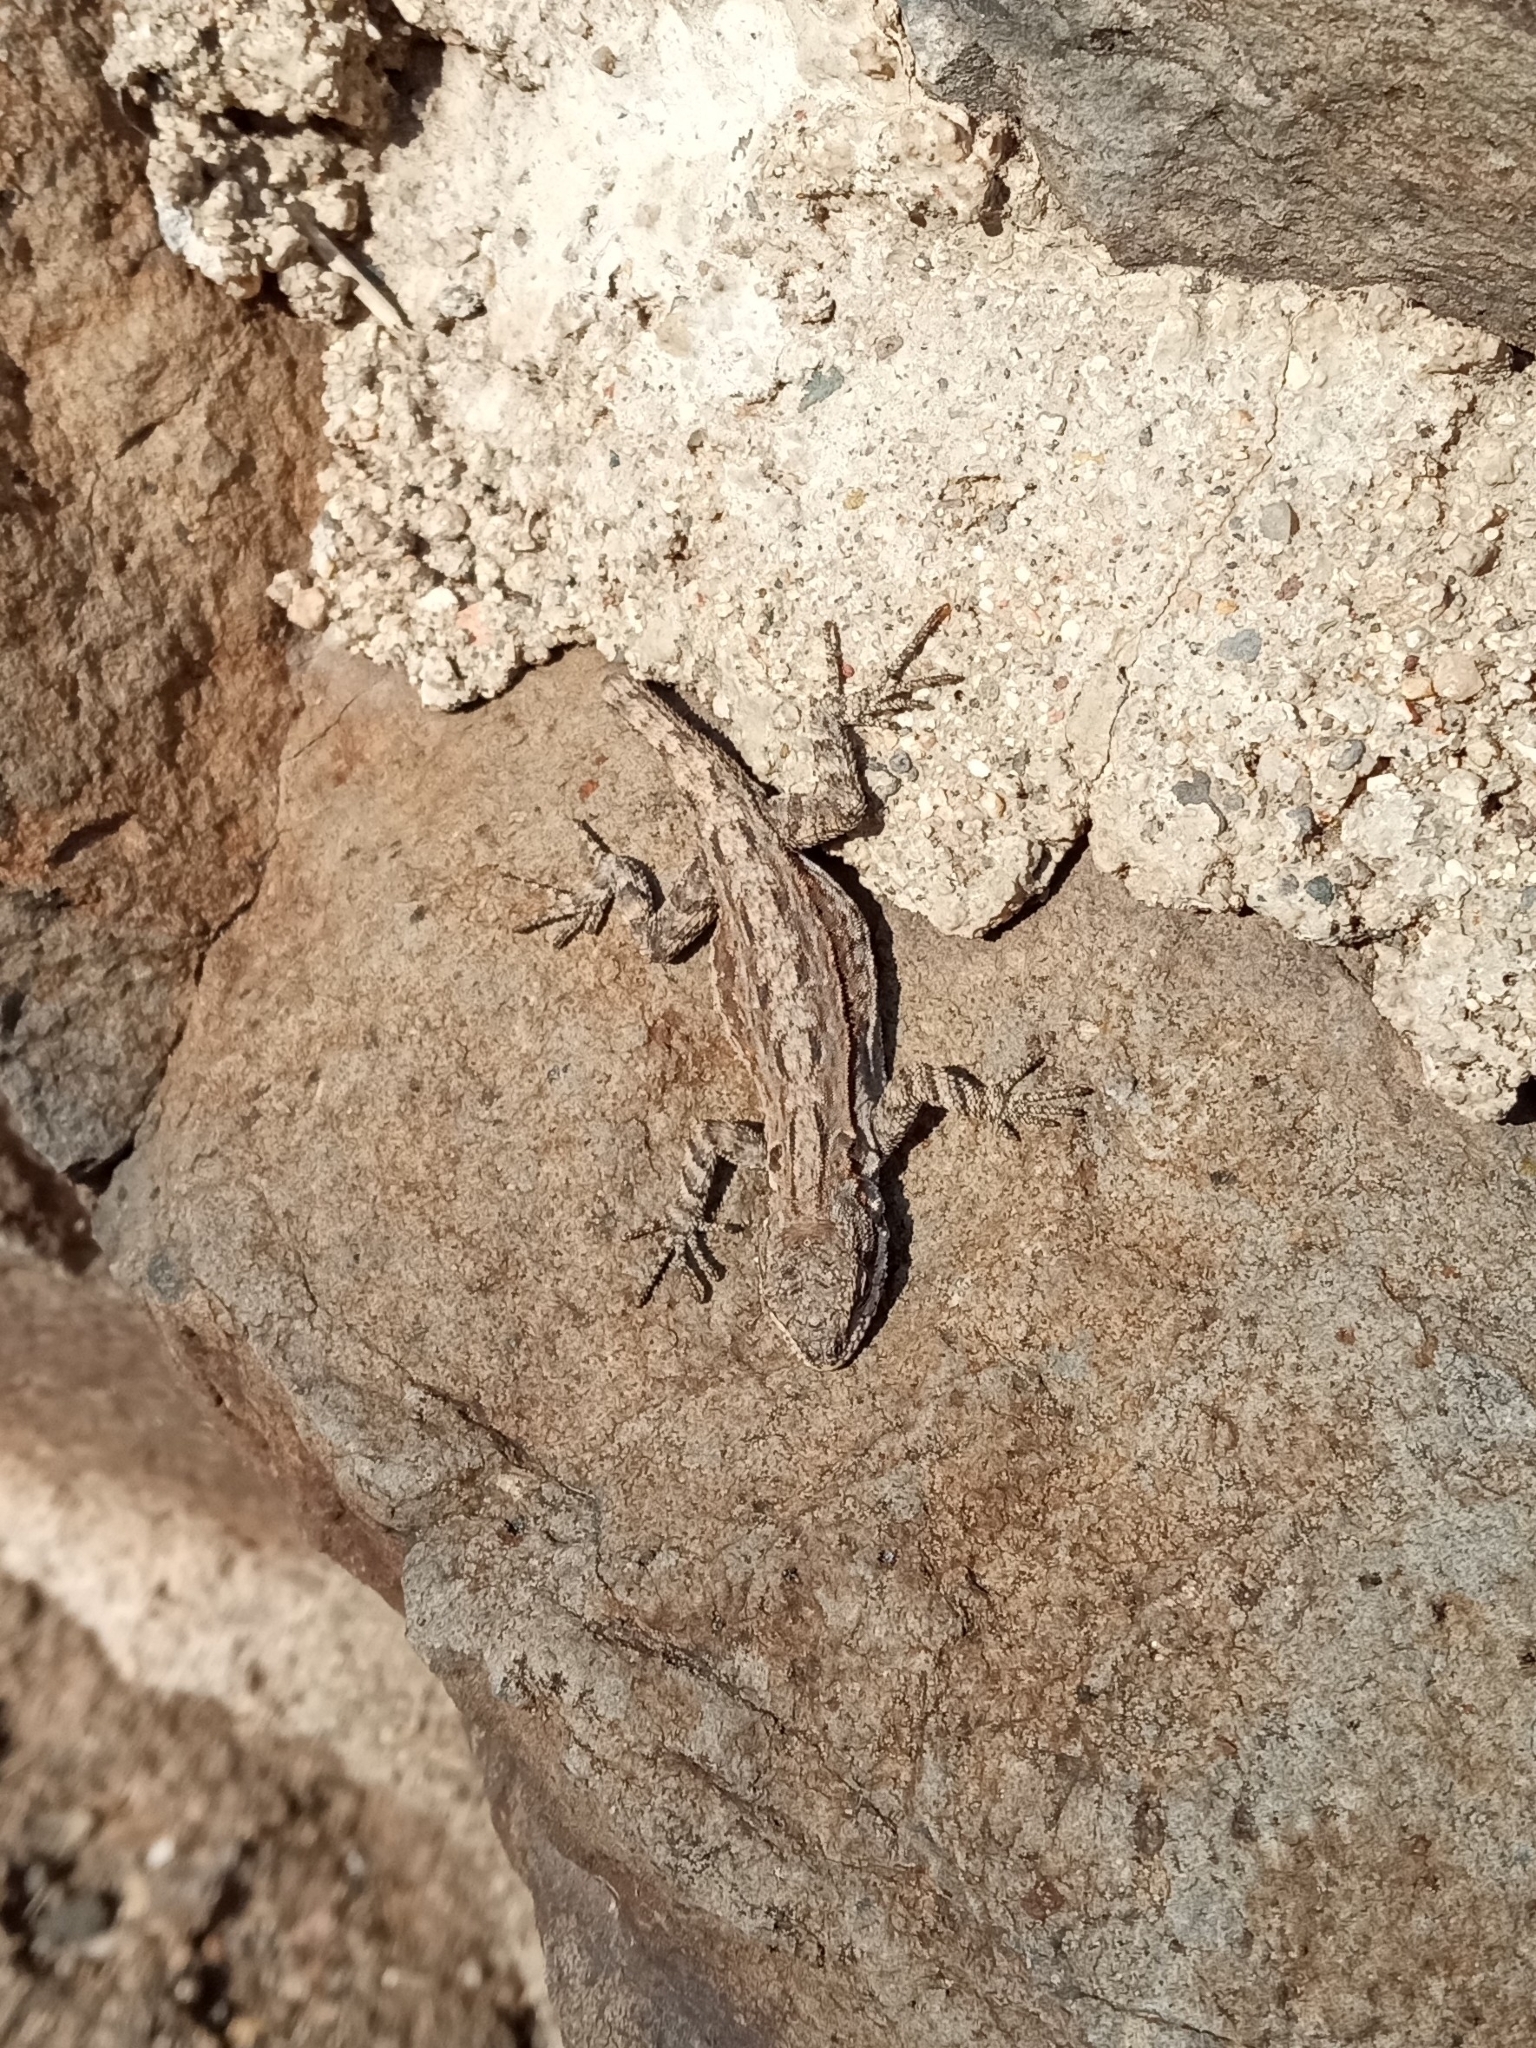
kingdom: Animalia
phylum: Chordata
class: Squamata
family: Phrynosomatidae
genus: Urosaurus
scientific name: Urosaurus ornatus
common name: Ornate tree lizard
